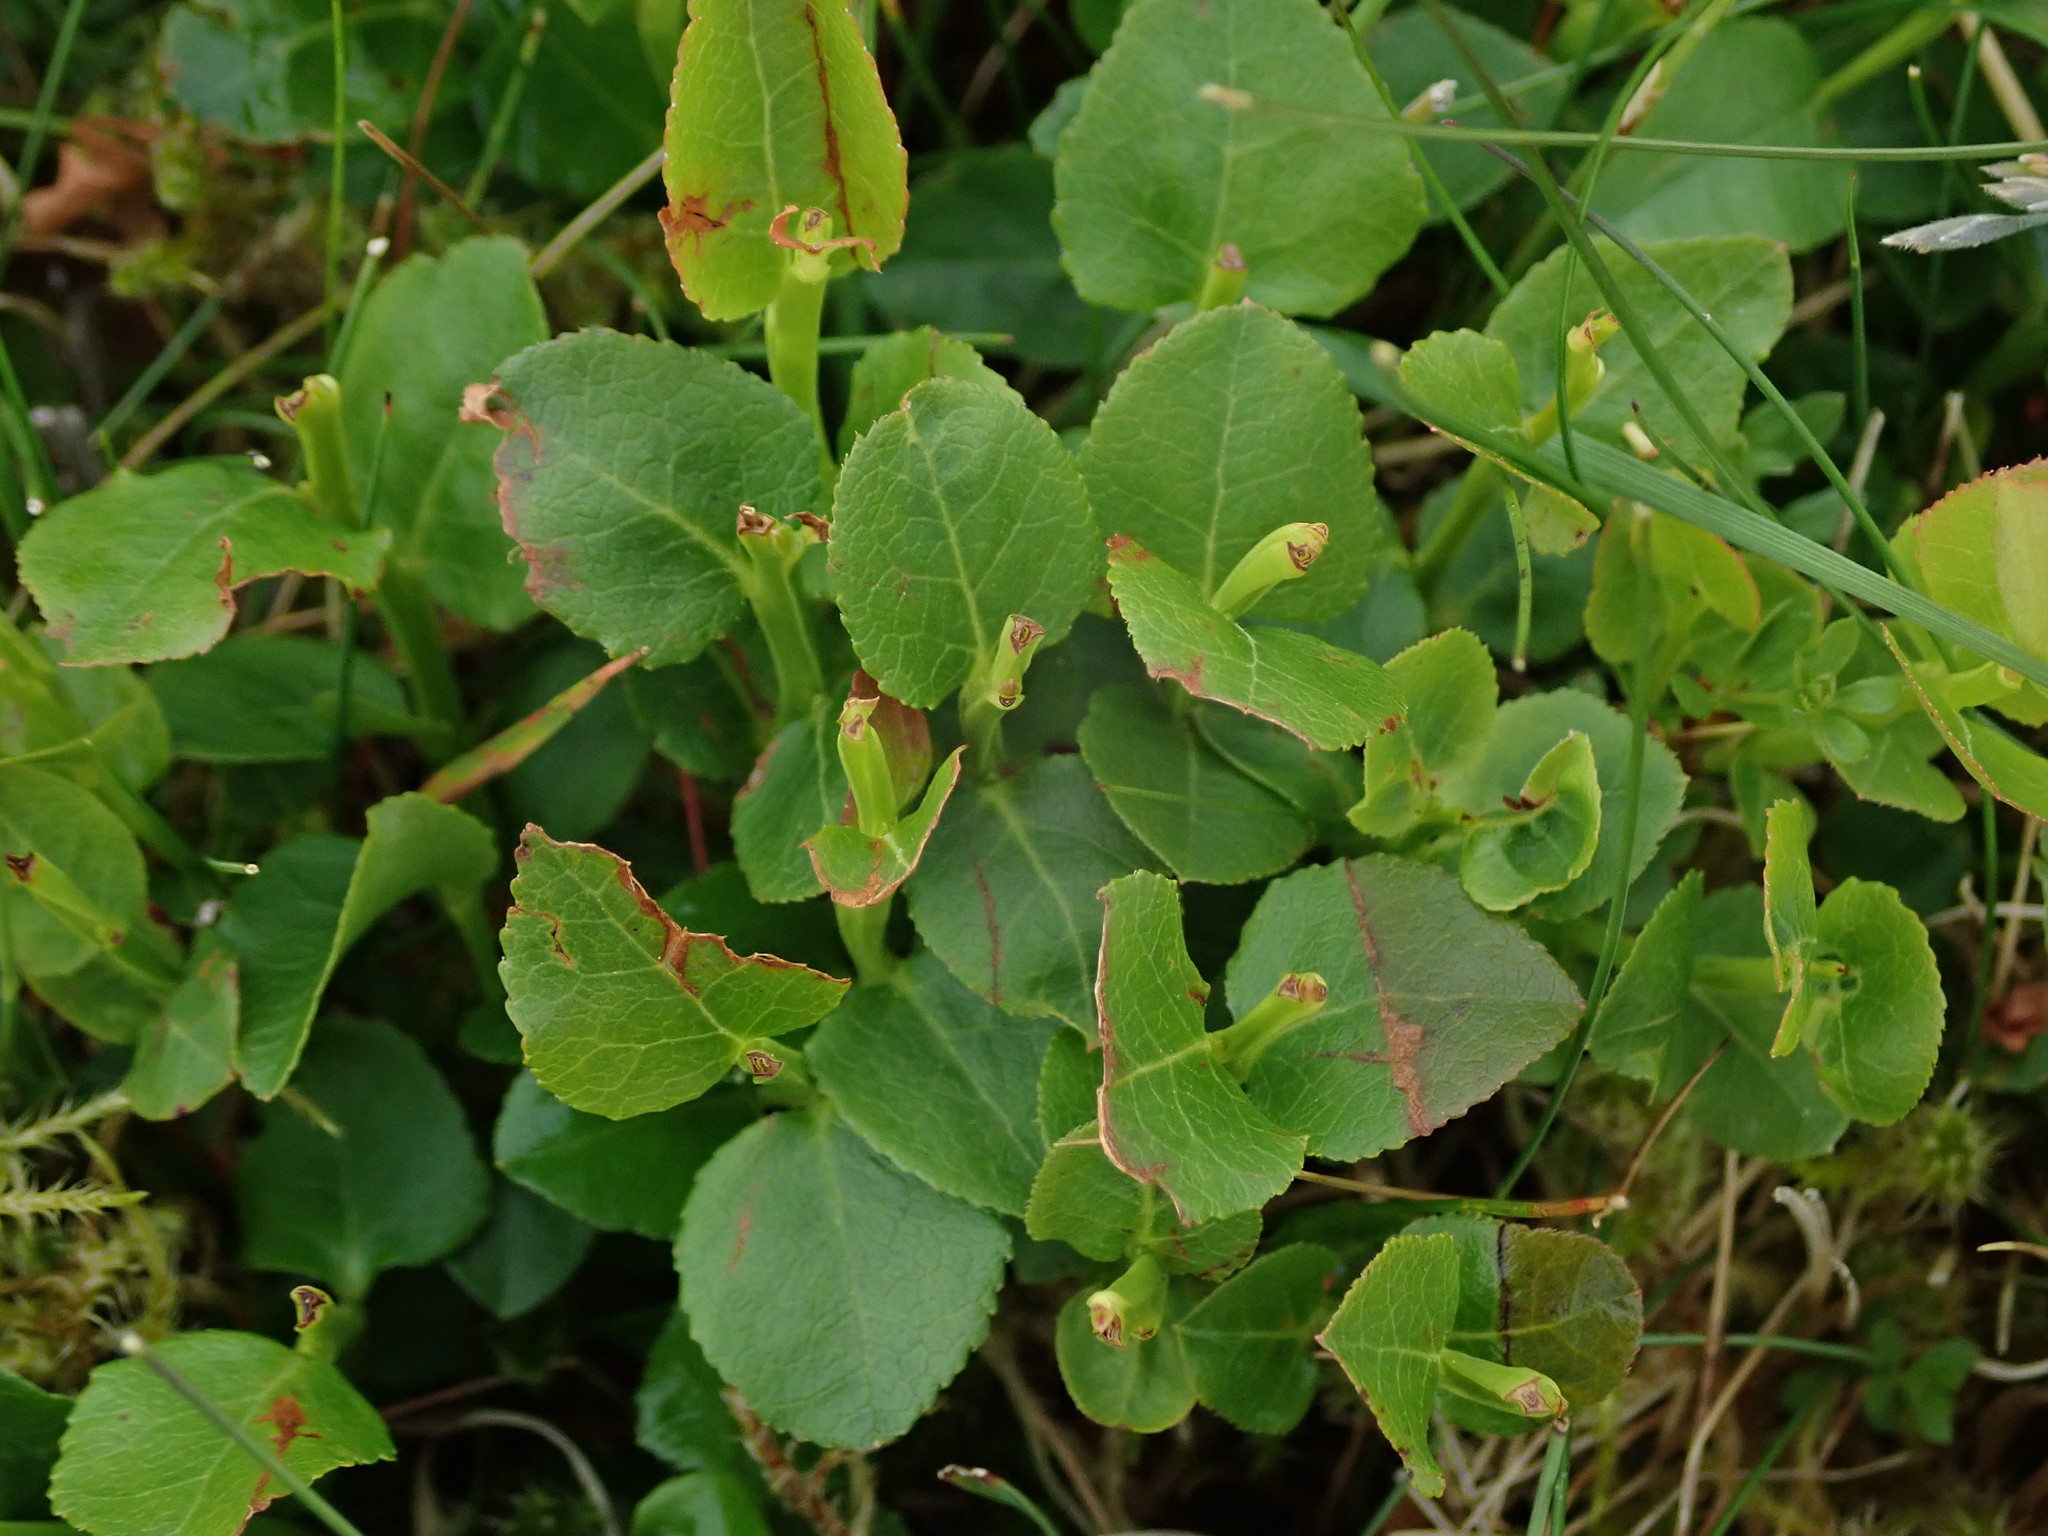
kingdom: Plantae
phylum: Tracheophyta
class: Magnoliopsida
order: Ericales
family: Ericaceae
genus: Vaccinium
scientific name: Vaccinium myrtillus
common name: Bilberry
